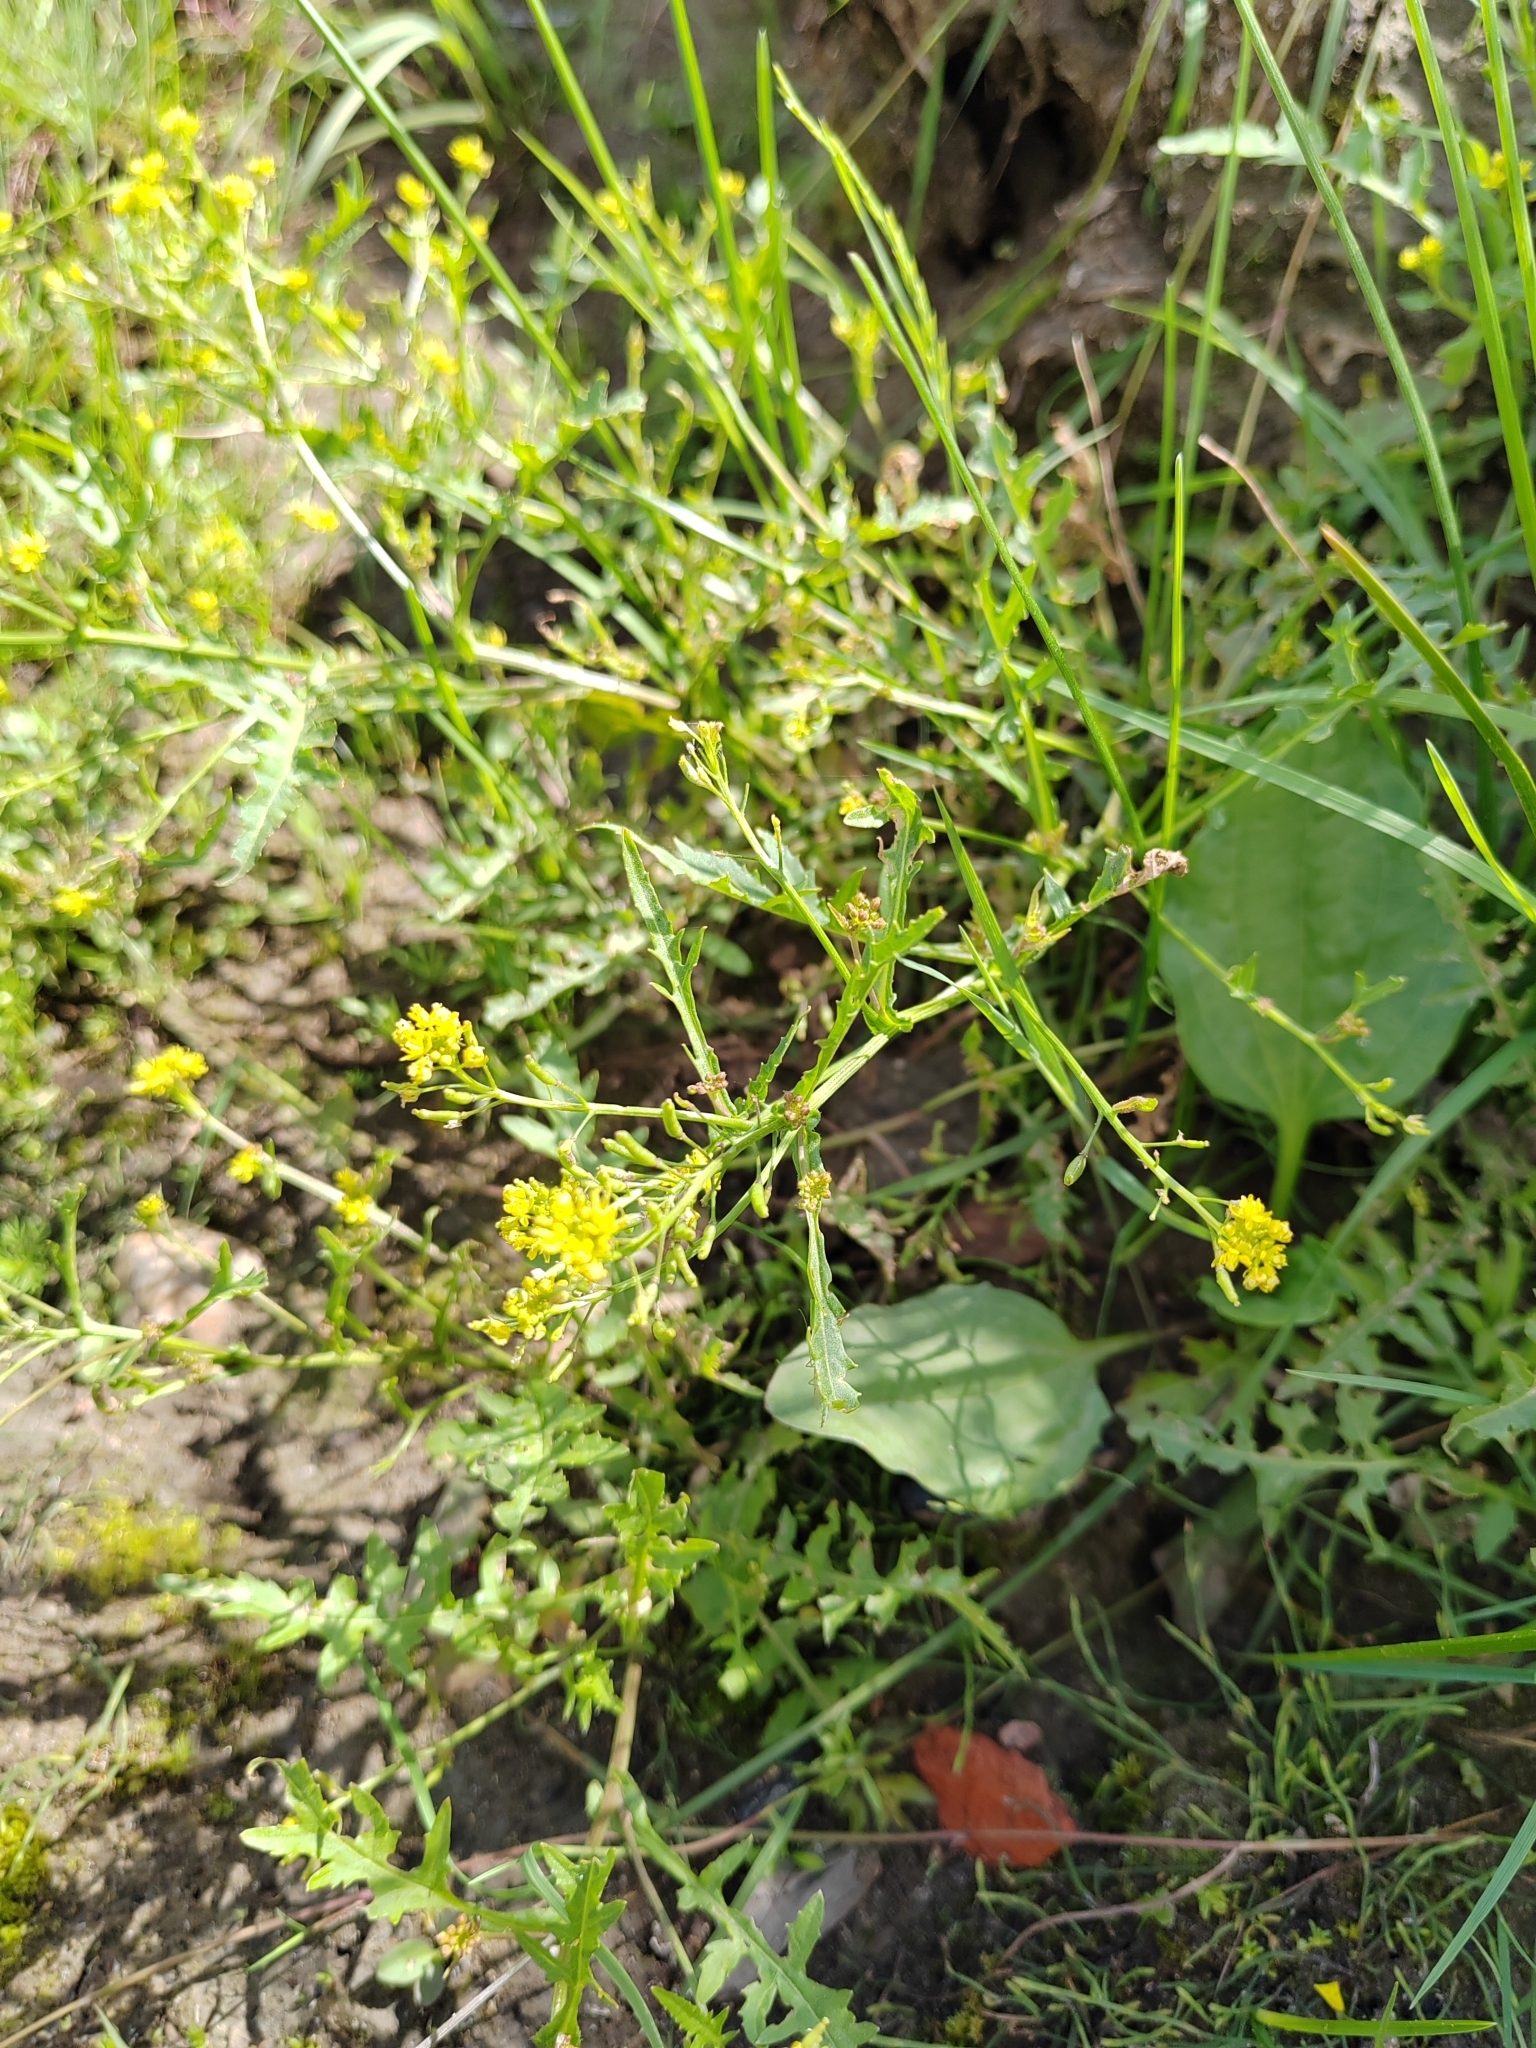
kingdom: Plantae
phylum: Tracheophyta
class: Magnoliopsida
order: Brassicales
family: Brassicaceae
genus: Rorippa
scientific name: Rorippa palustris
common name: Marsh yellow-cress
